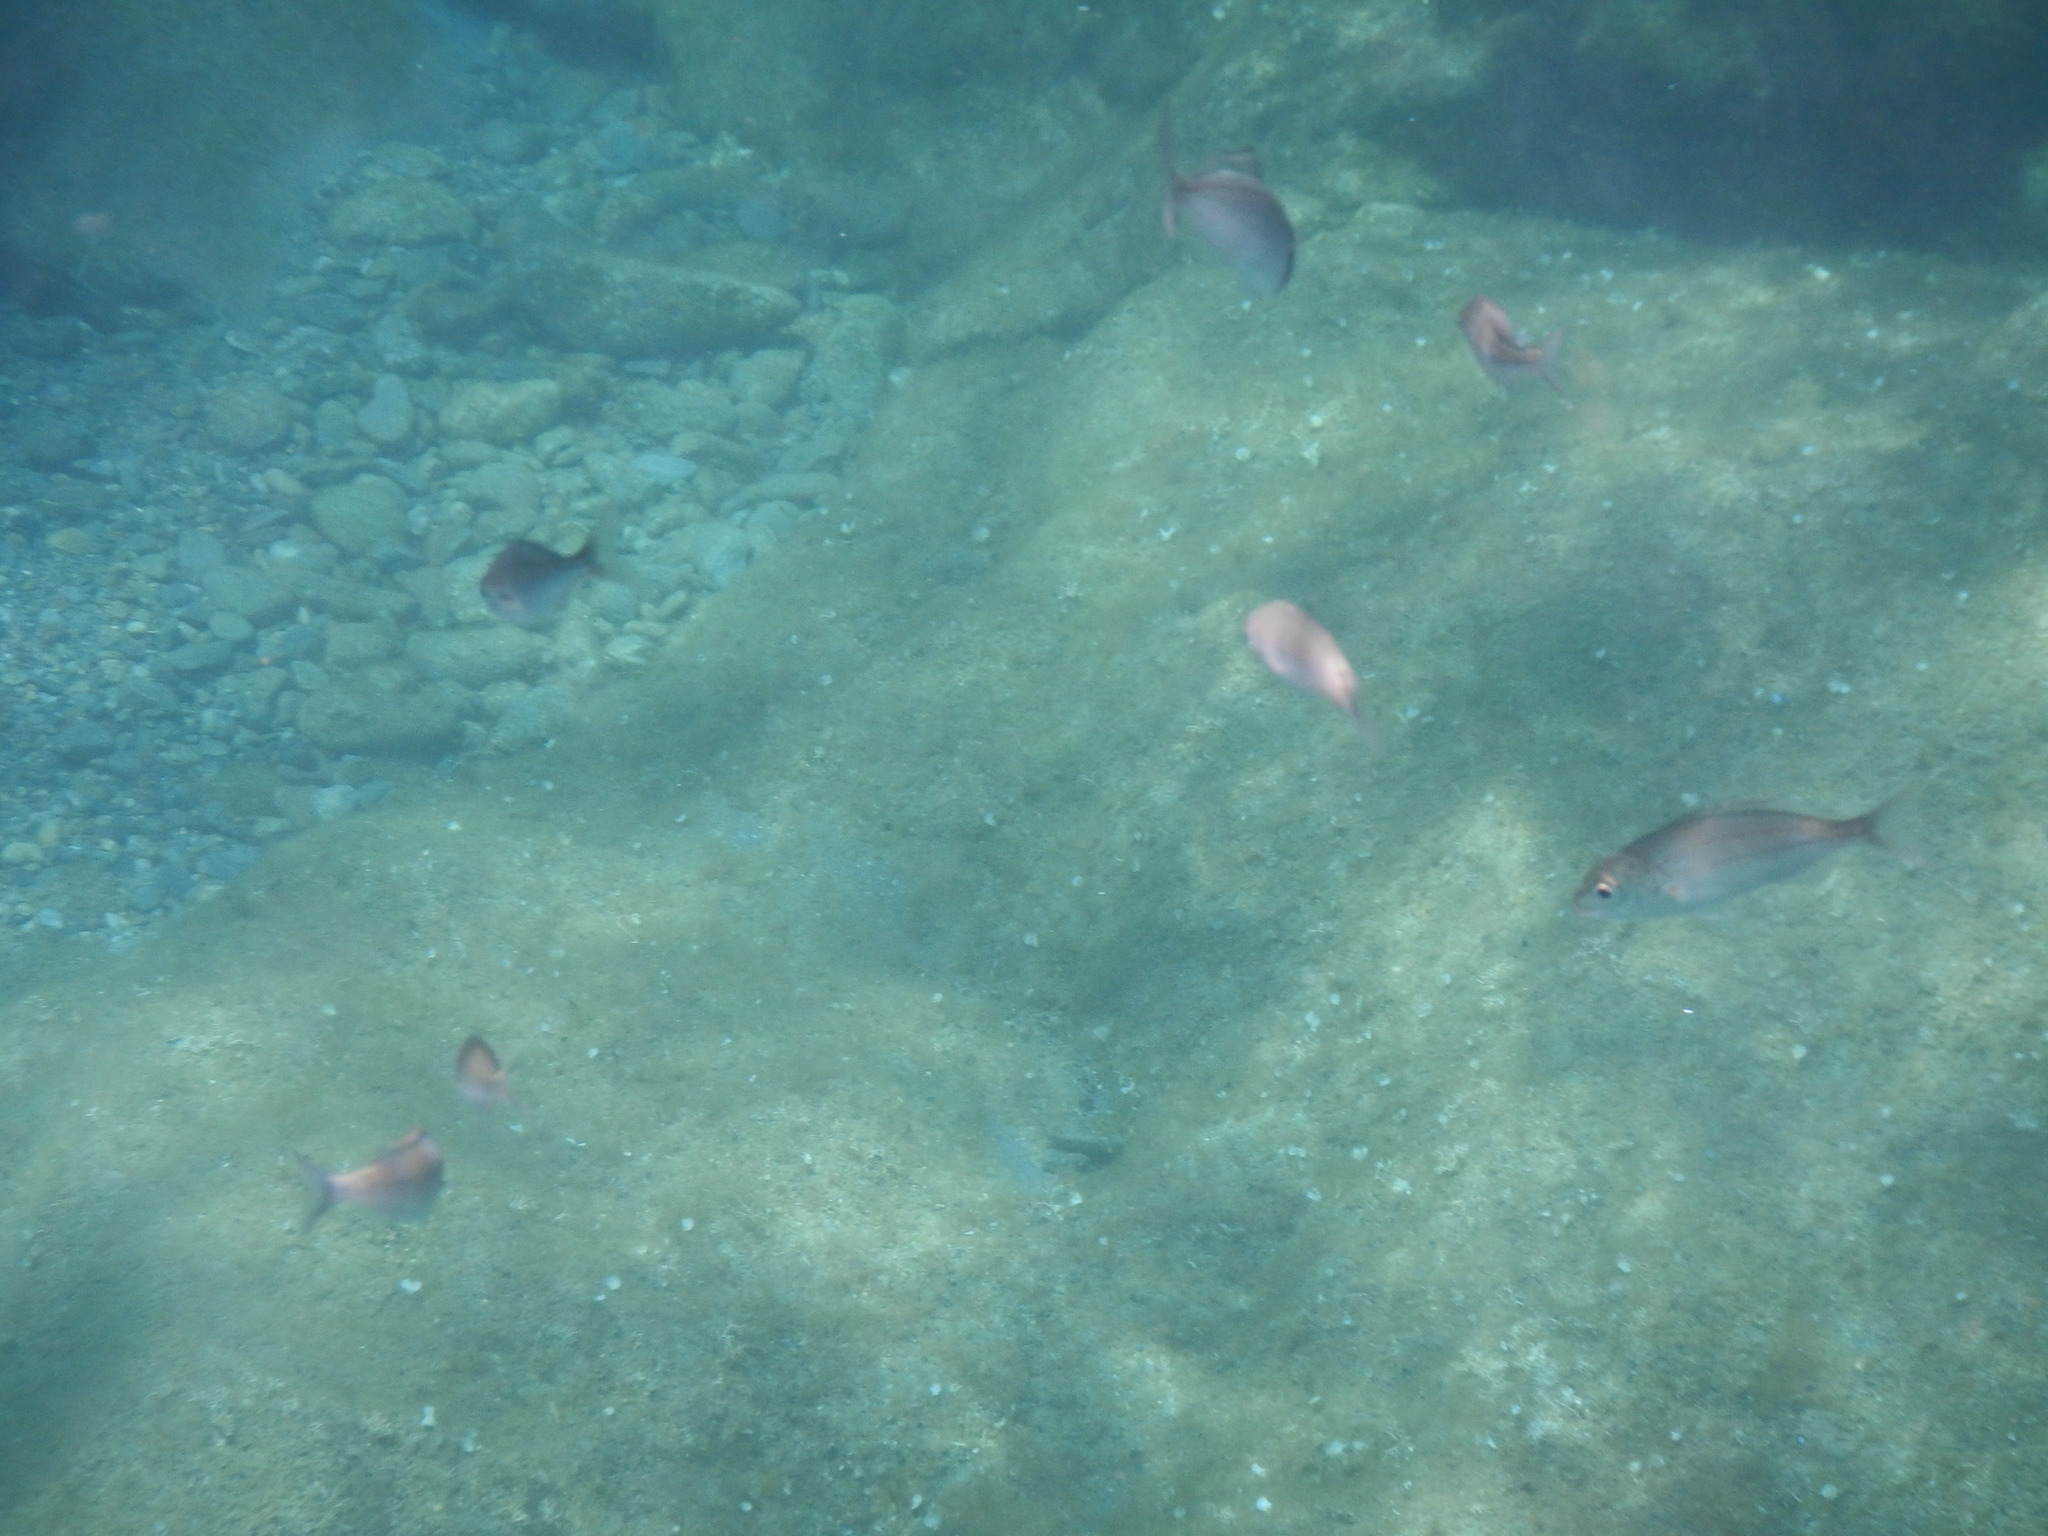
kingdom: Animalia
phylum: Chordata
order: Perciformes
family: Sparidae
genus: Pagellus
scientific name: Pagellus acarne
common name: Axillary sea-bream
